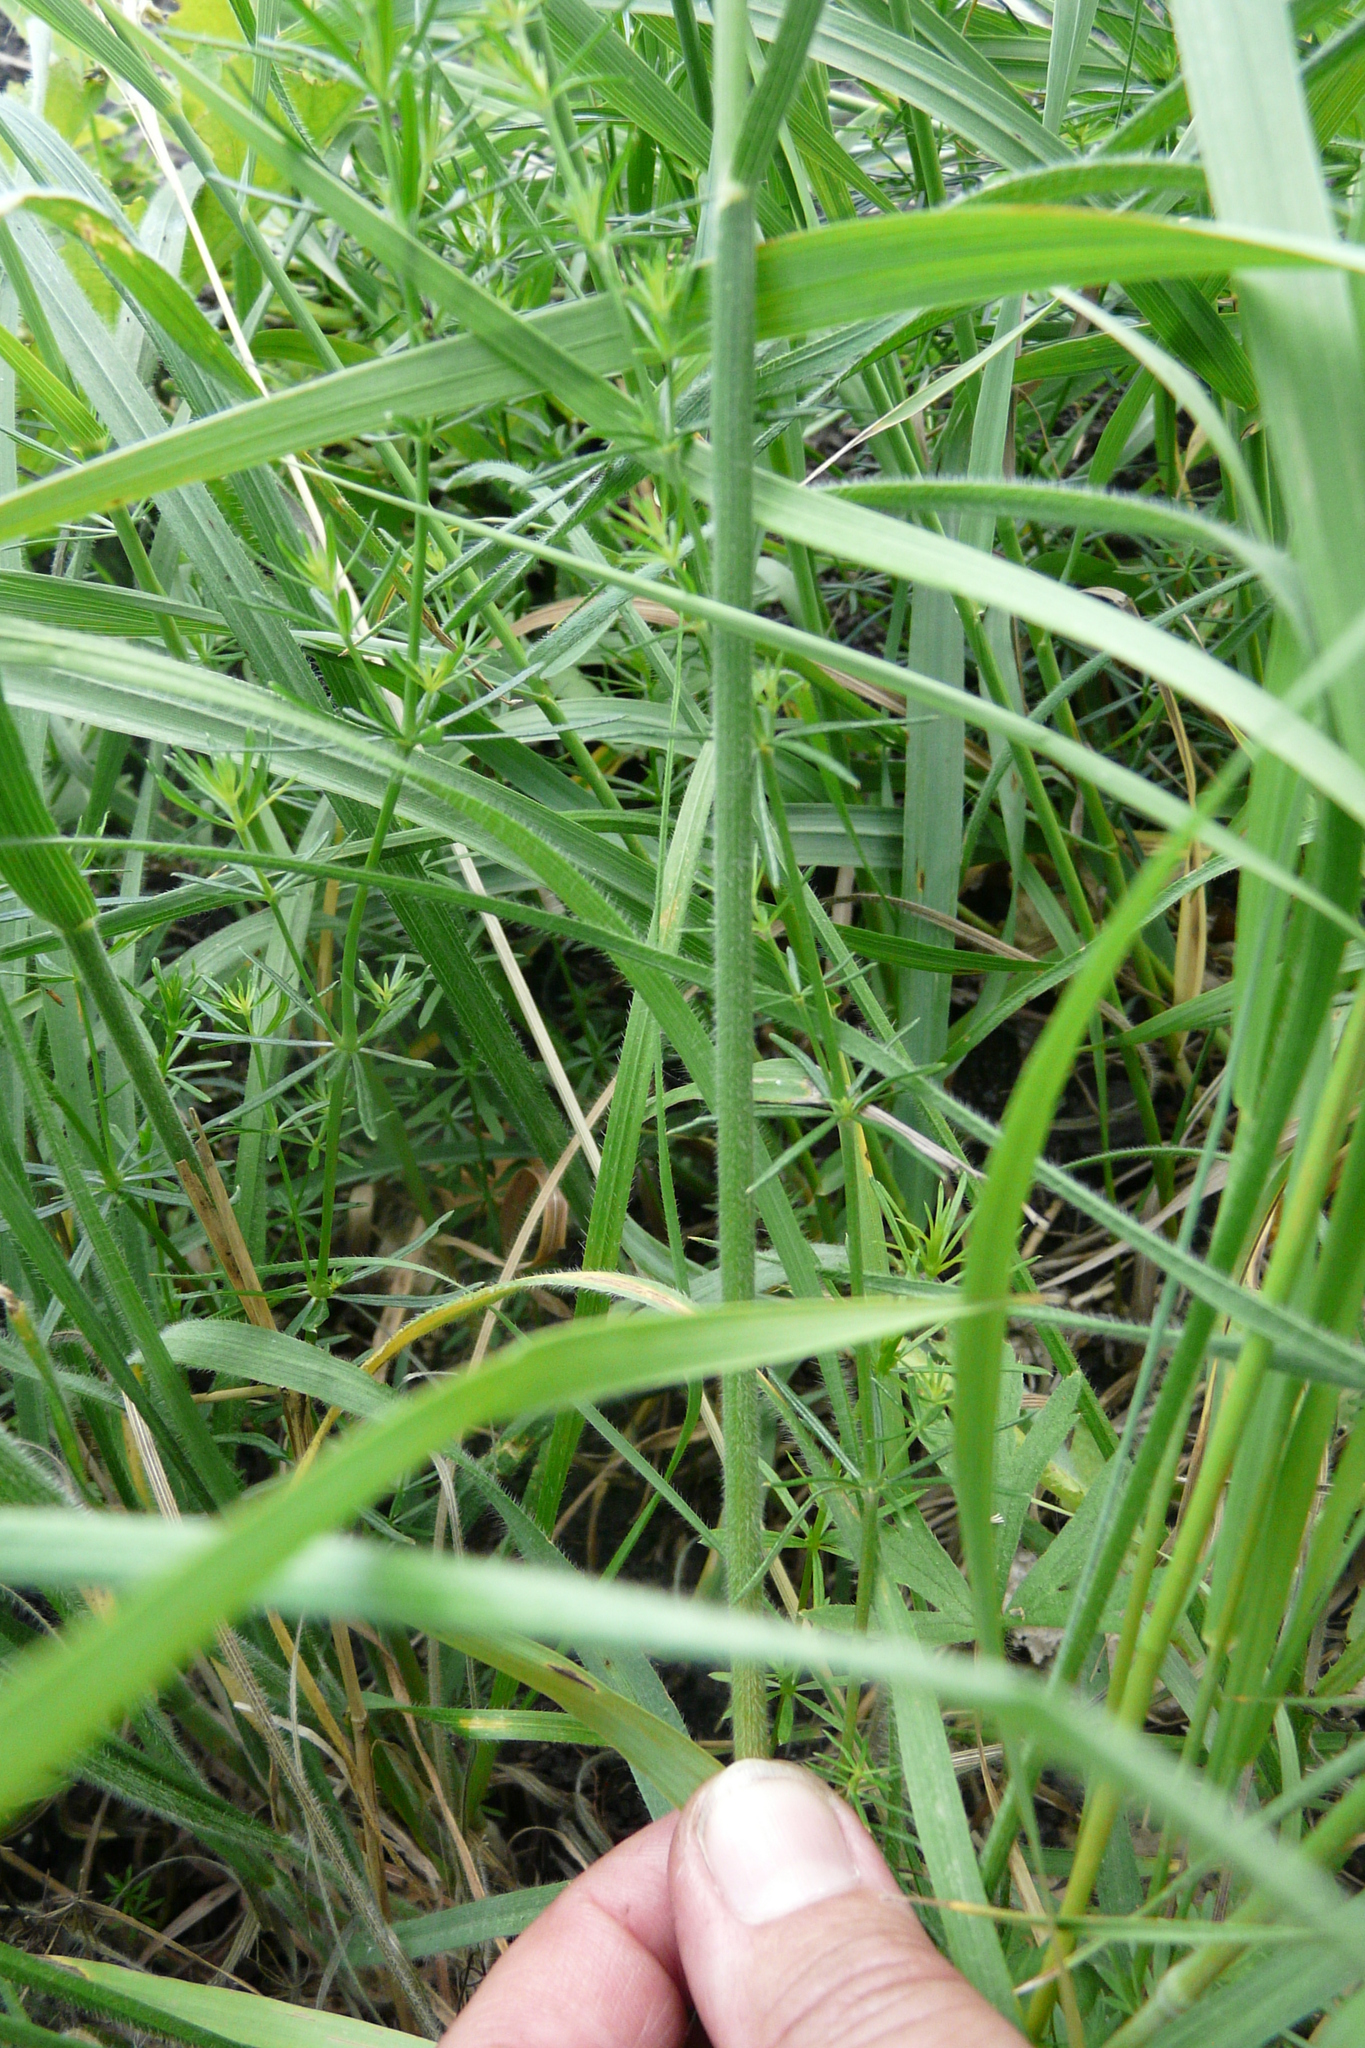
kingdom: Plantae
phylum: Tracheophyta
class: Liliopsida
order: Poales
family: Poaceae
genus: Bromus
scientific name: Bromus riparius
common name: Meadow brome
